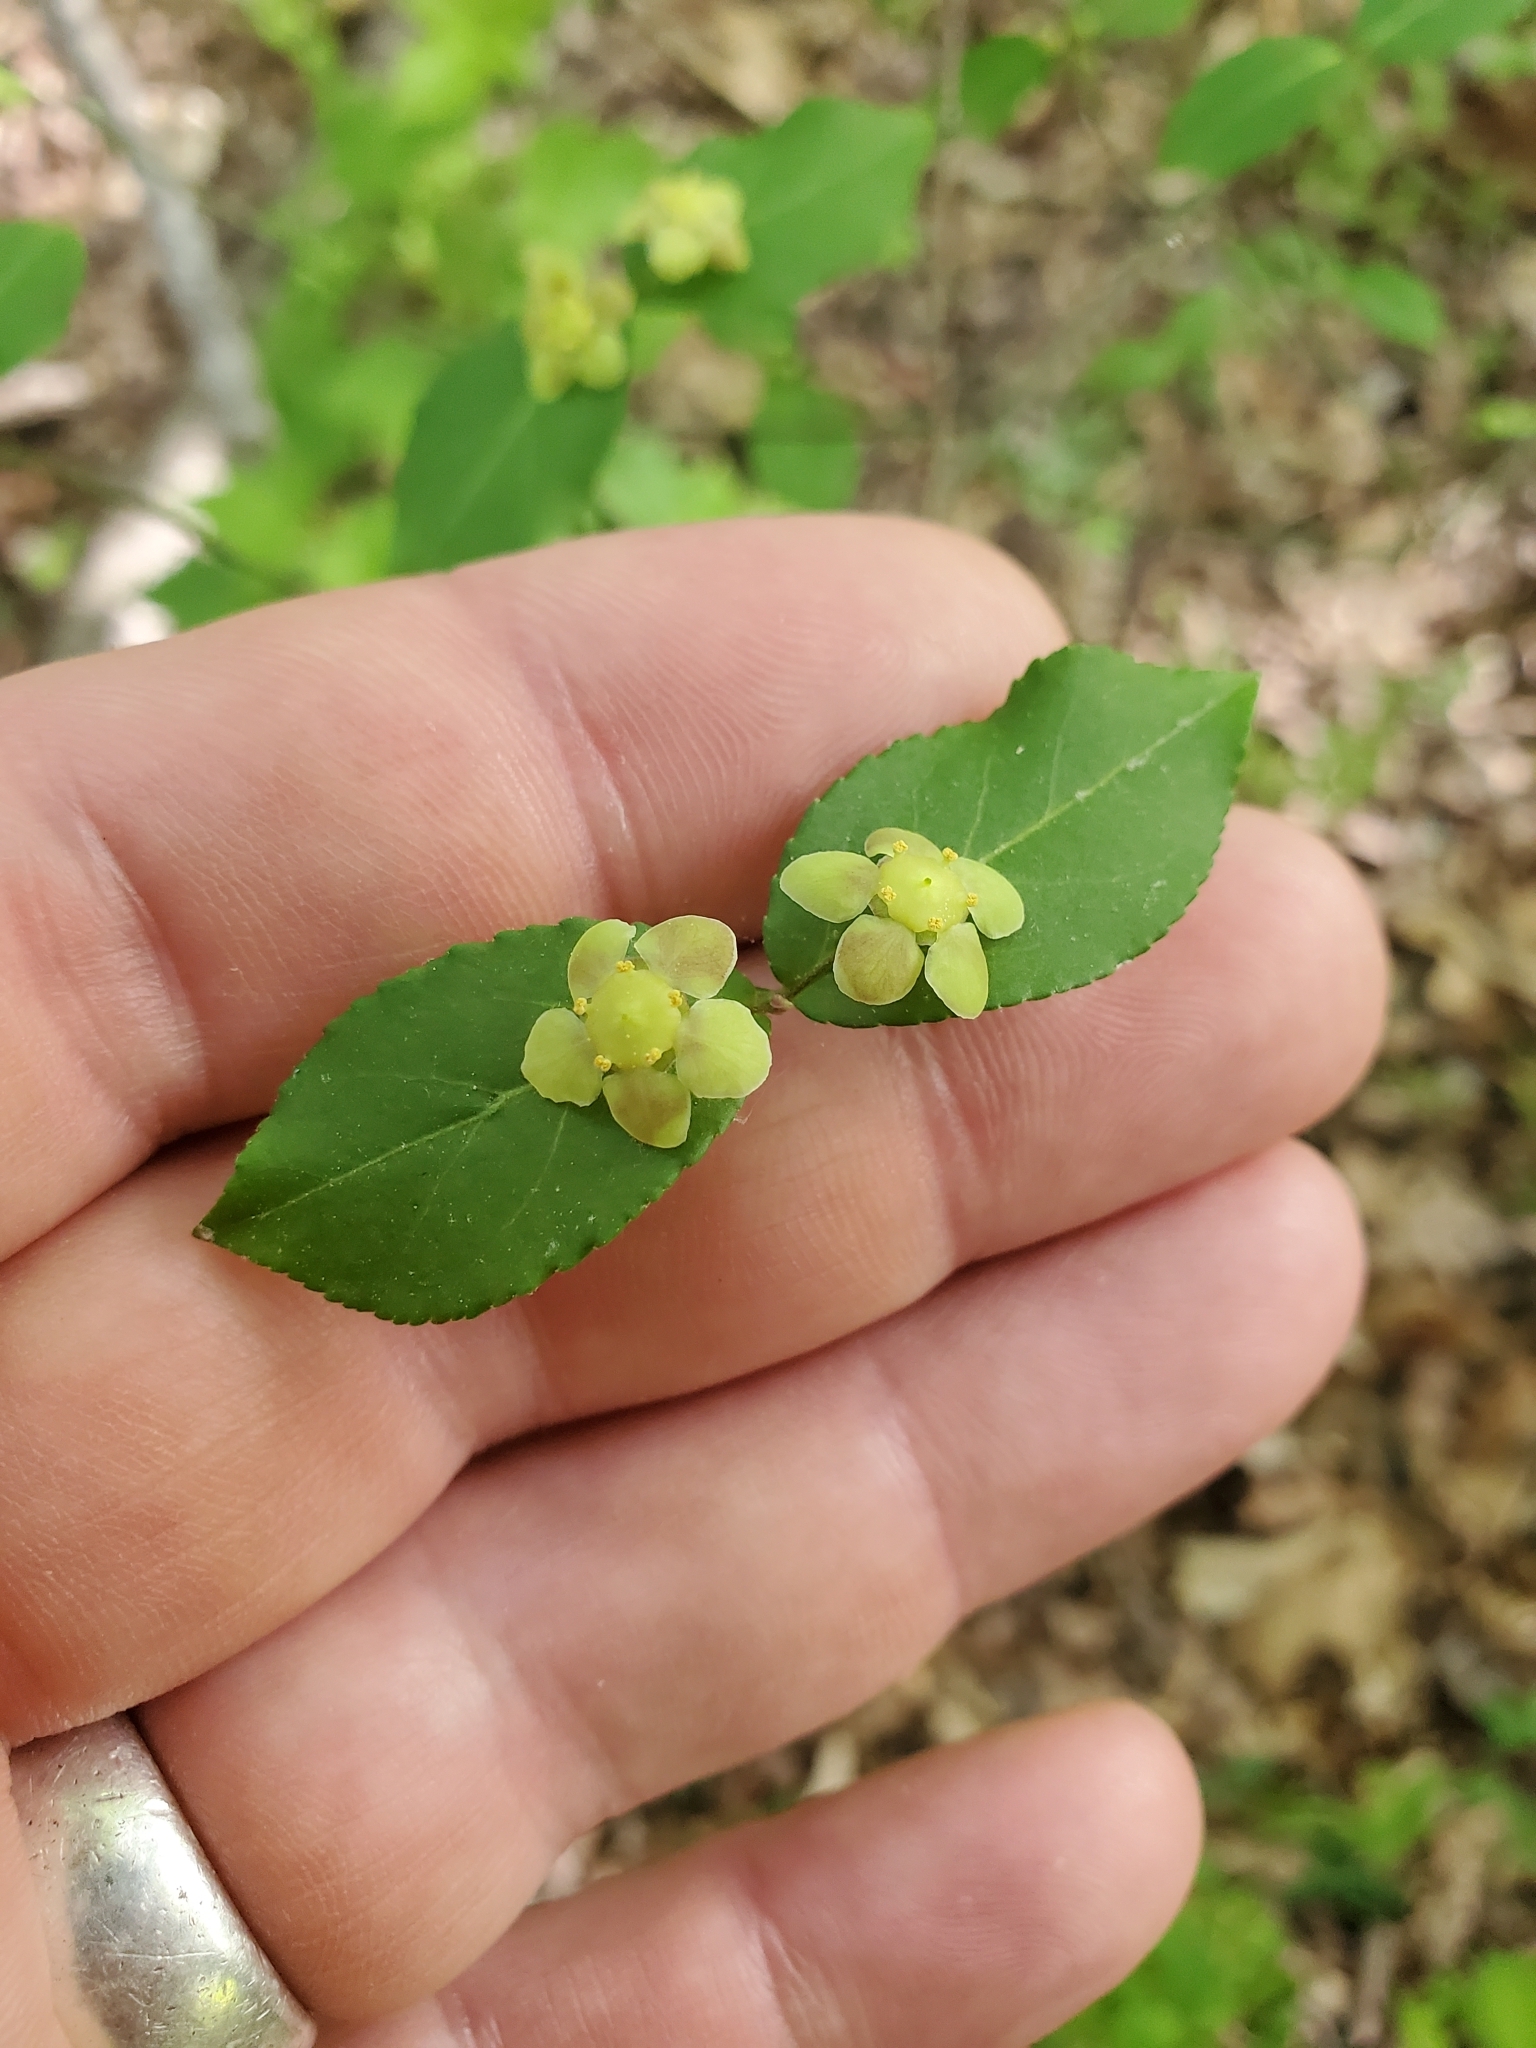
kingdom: Plantae
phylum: Tracheophyta
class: Magnoliopsida
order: Celastrales
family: Celastraceae
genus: Euonymus
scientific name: Euonymus americanus
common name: Bursting-heart
